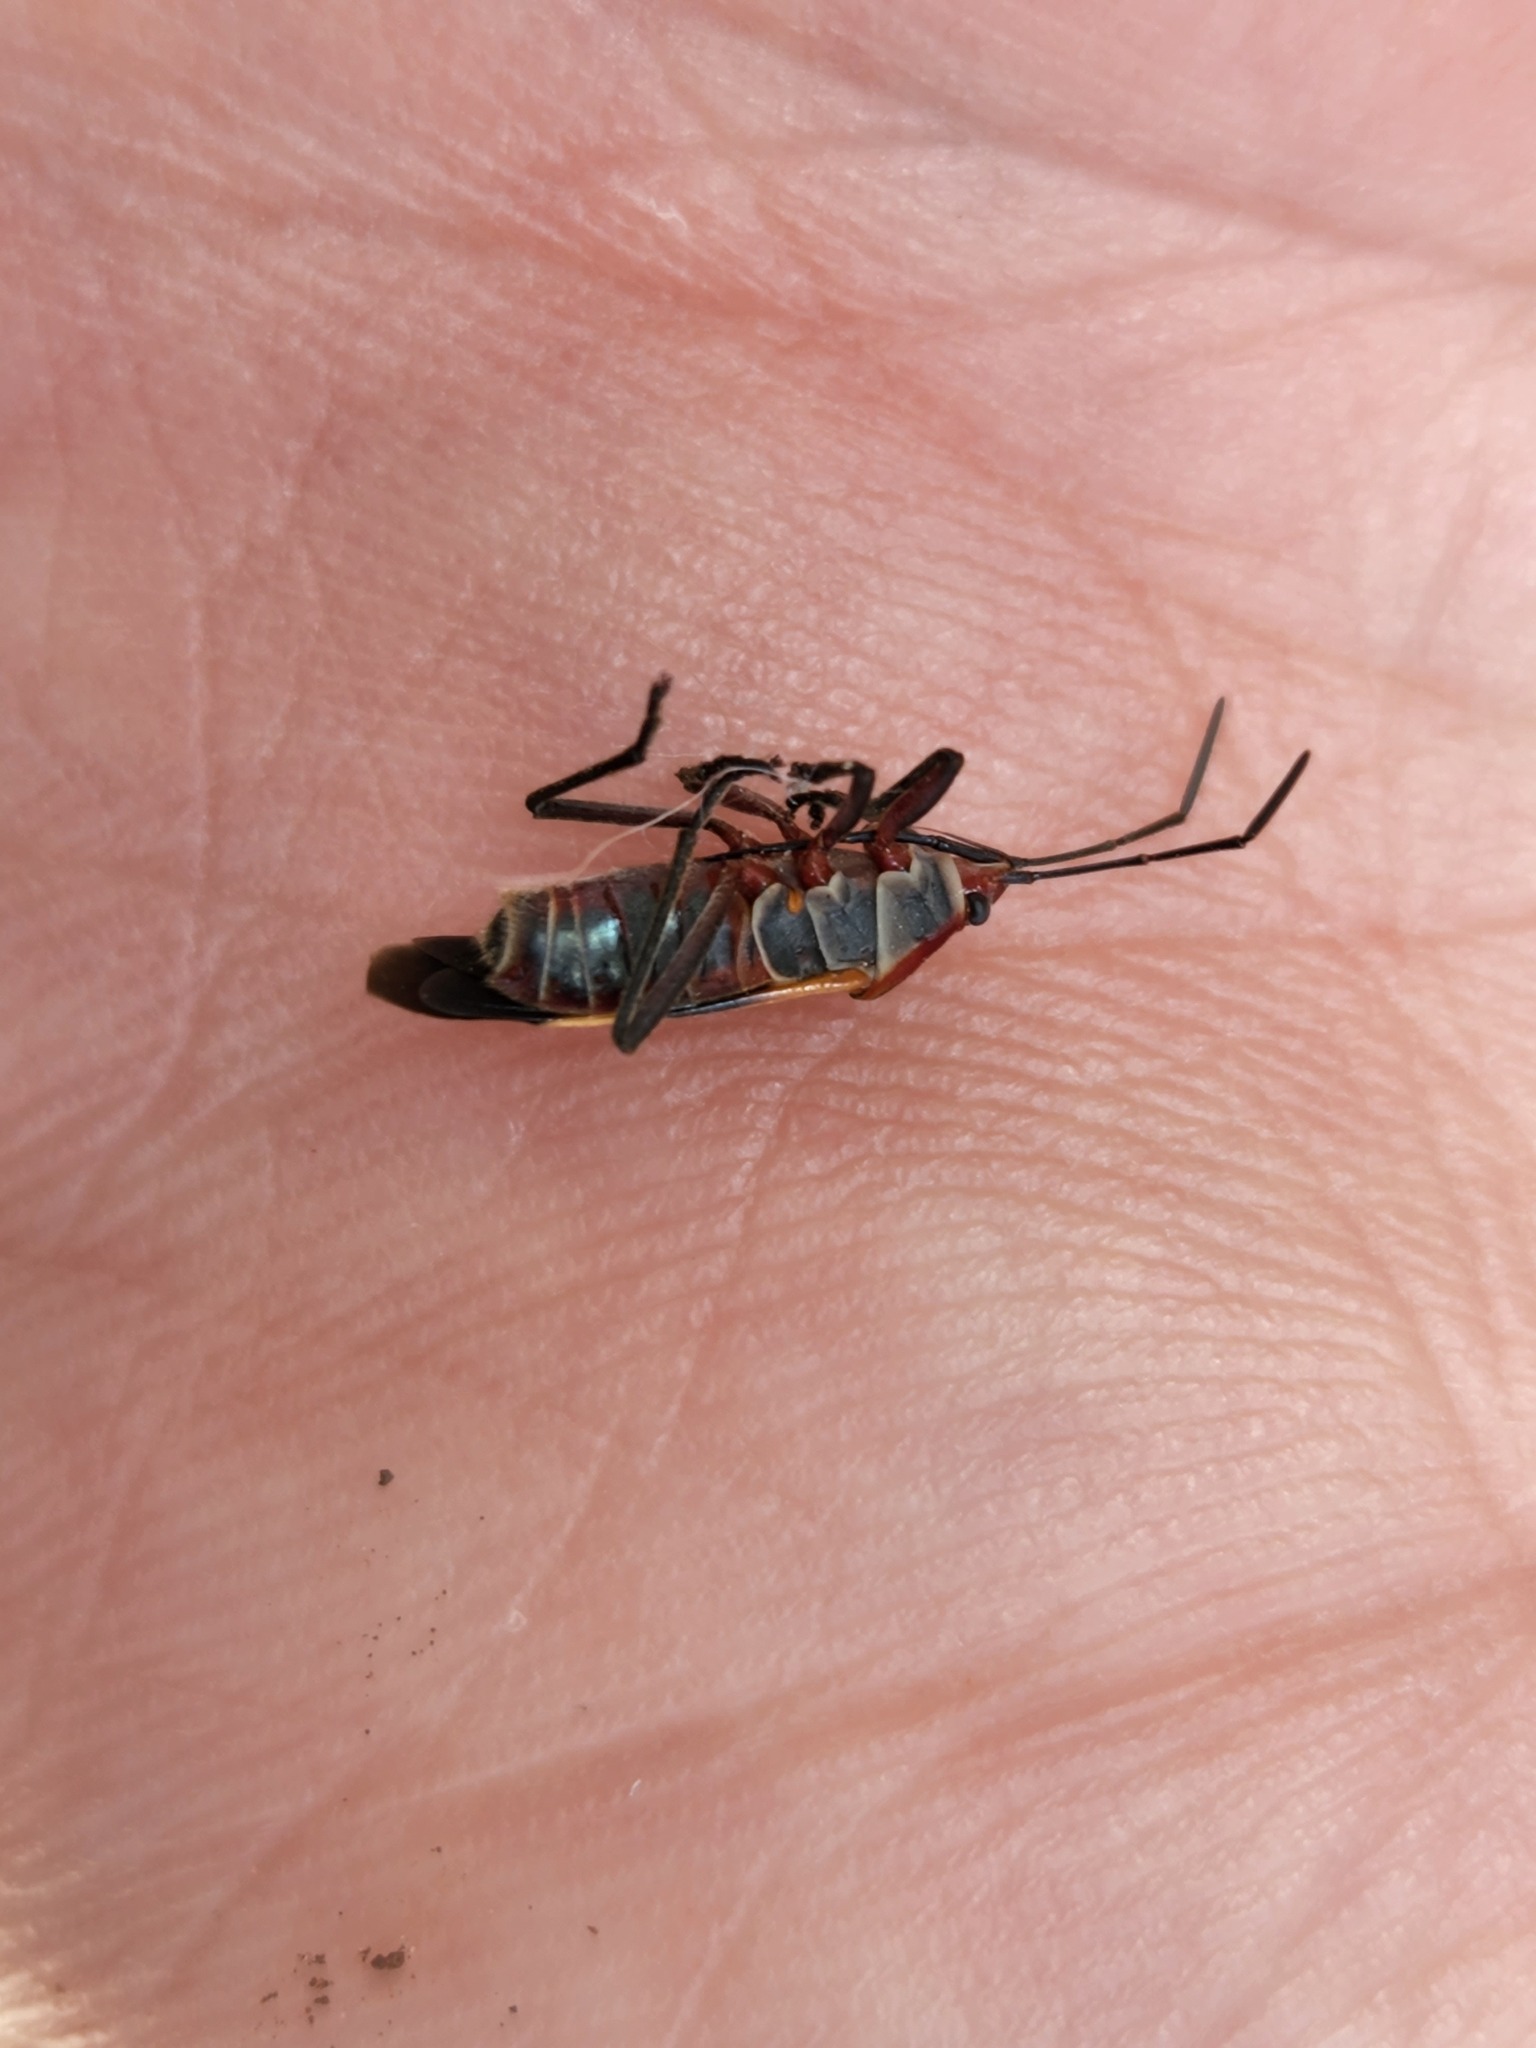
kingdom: Animalia
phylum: Arthropoda
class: Insecta
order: Hemiptera
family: Lygaeidae
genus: Oncopeltus
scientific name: Oncopeltus unifasciatellus
